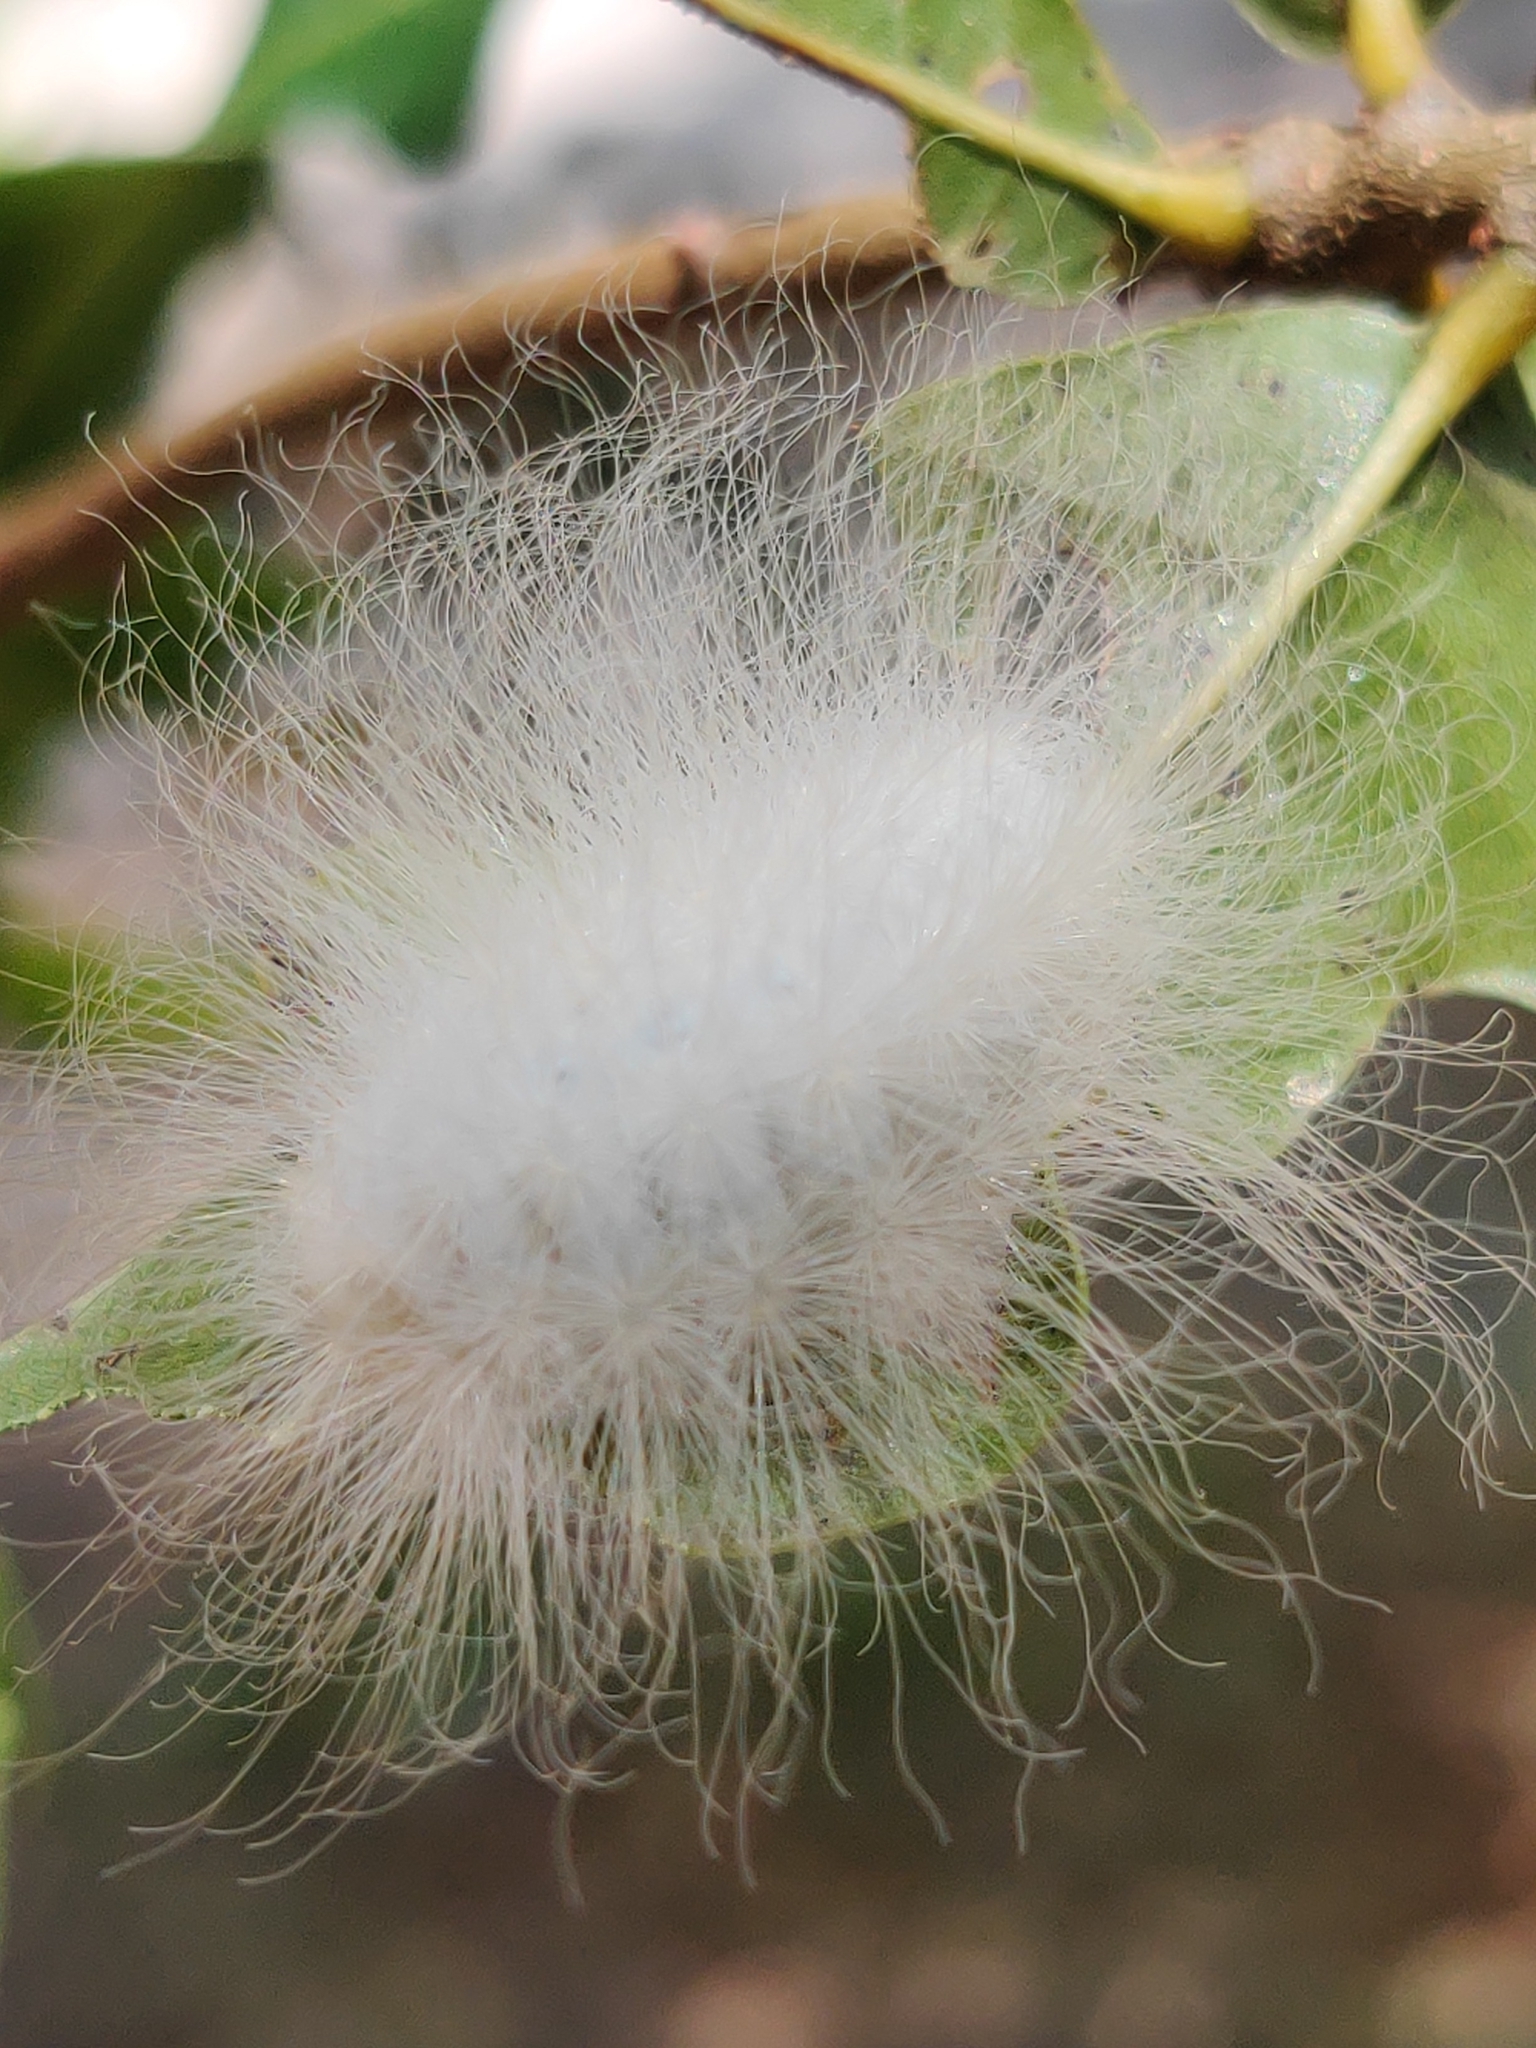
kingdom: Animalia
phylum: Arthropoda
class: Insecta
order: Lepidoptera
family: Megalopygidae
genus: Megalopyge
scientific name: Megalopyge
